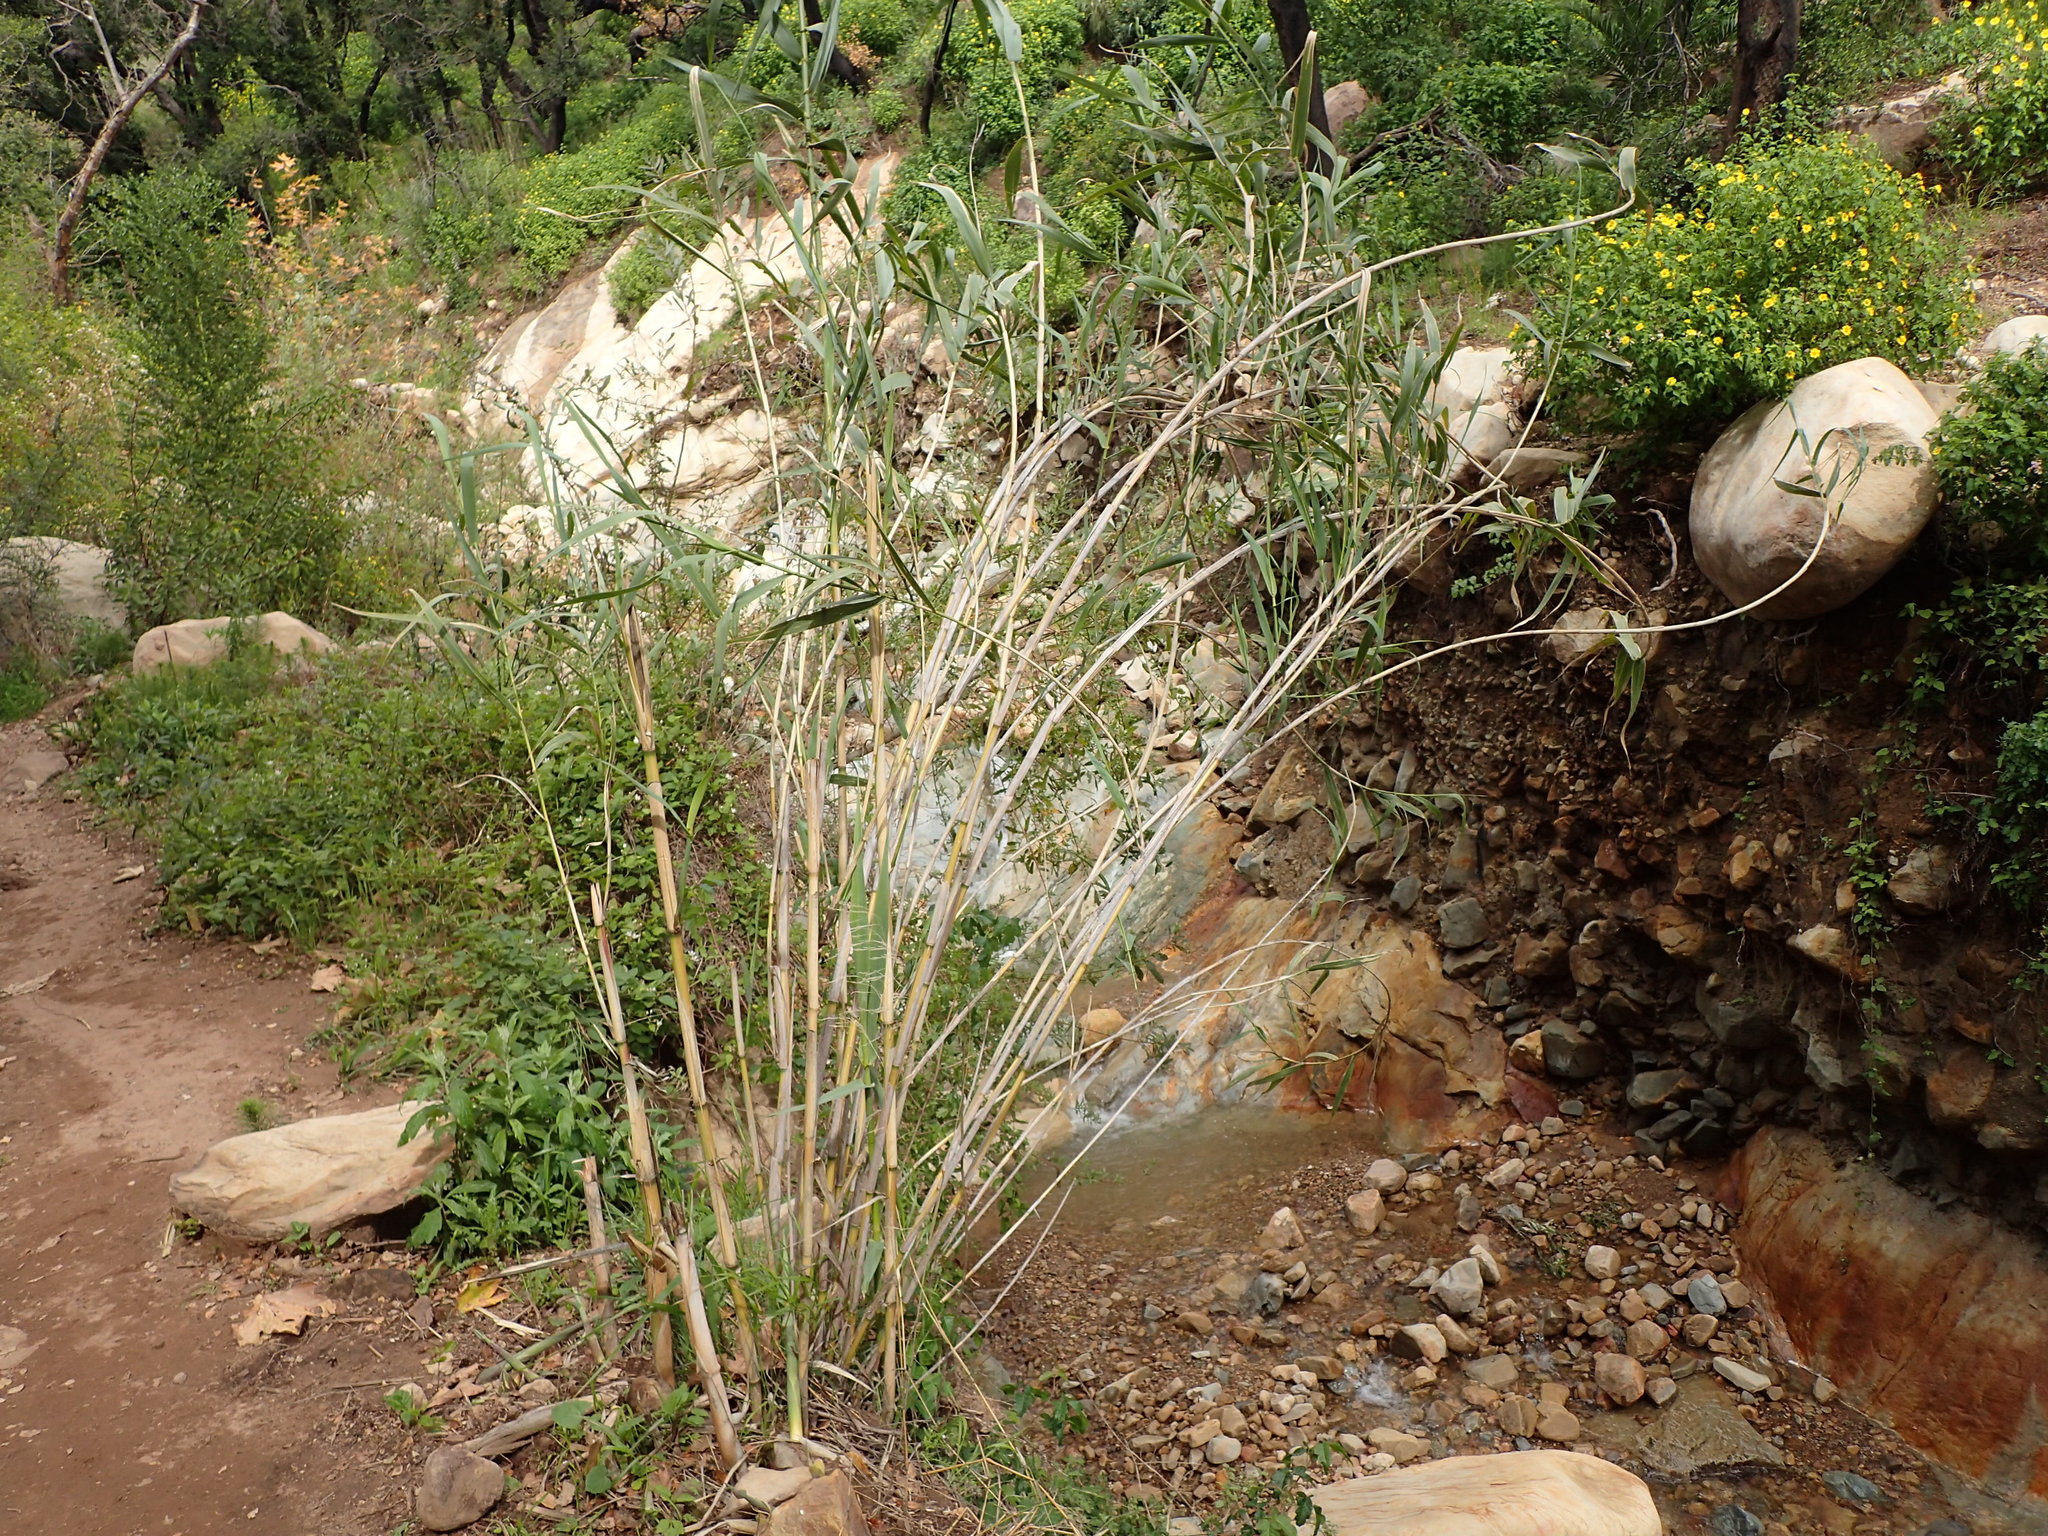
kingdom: Plantae
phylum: Tracheophyta
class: Liliopsida
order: Poales
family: Poaceae
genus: Arundo
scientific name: Arundo donax
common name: Giant reed
